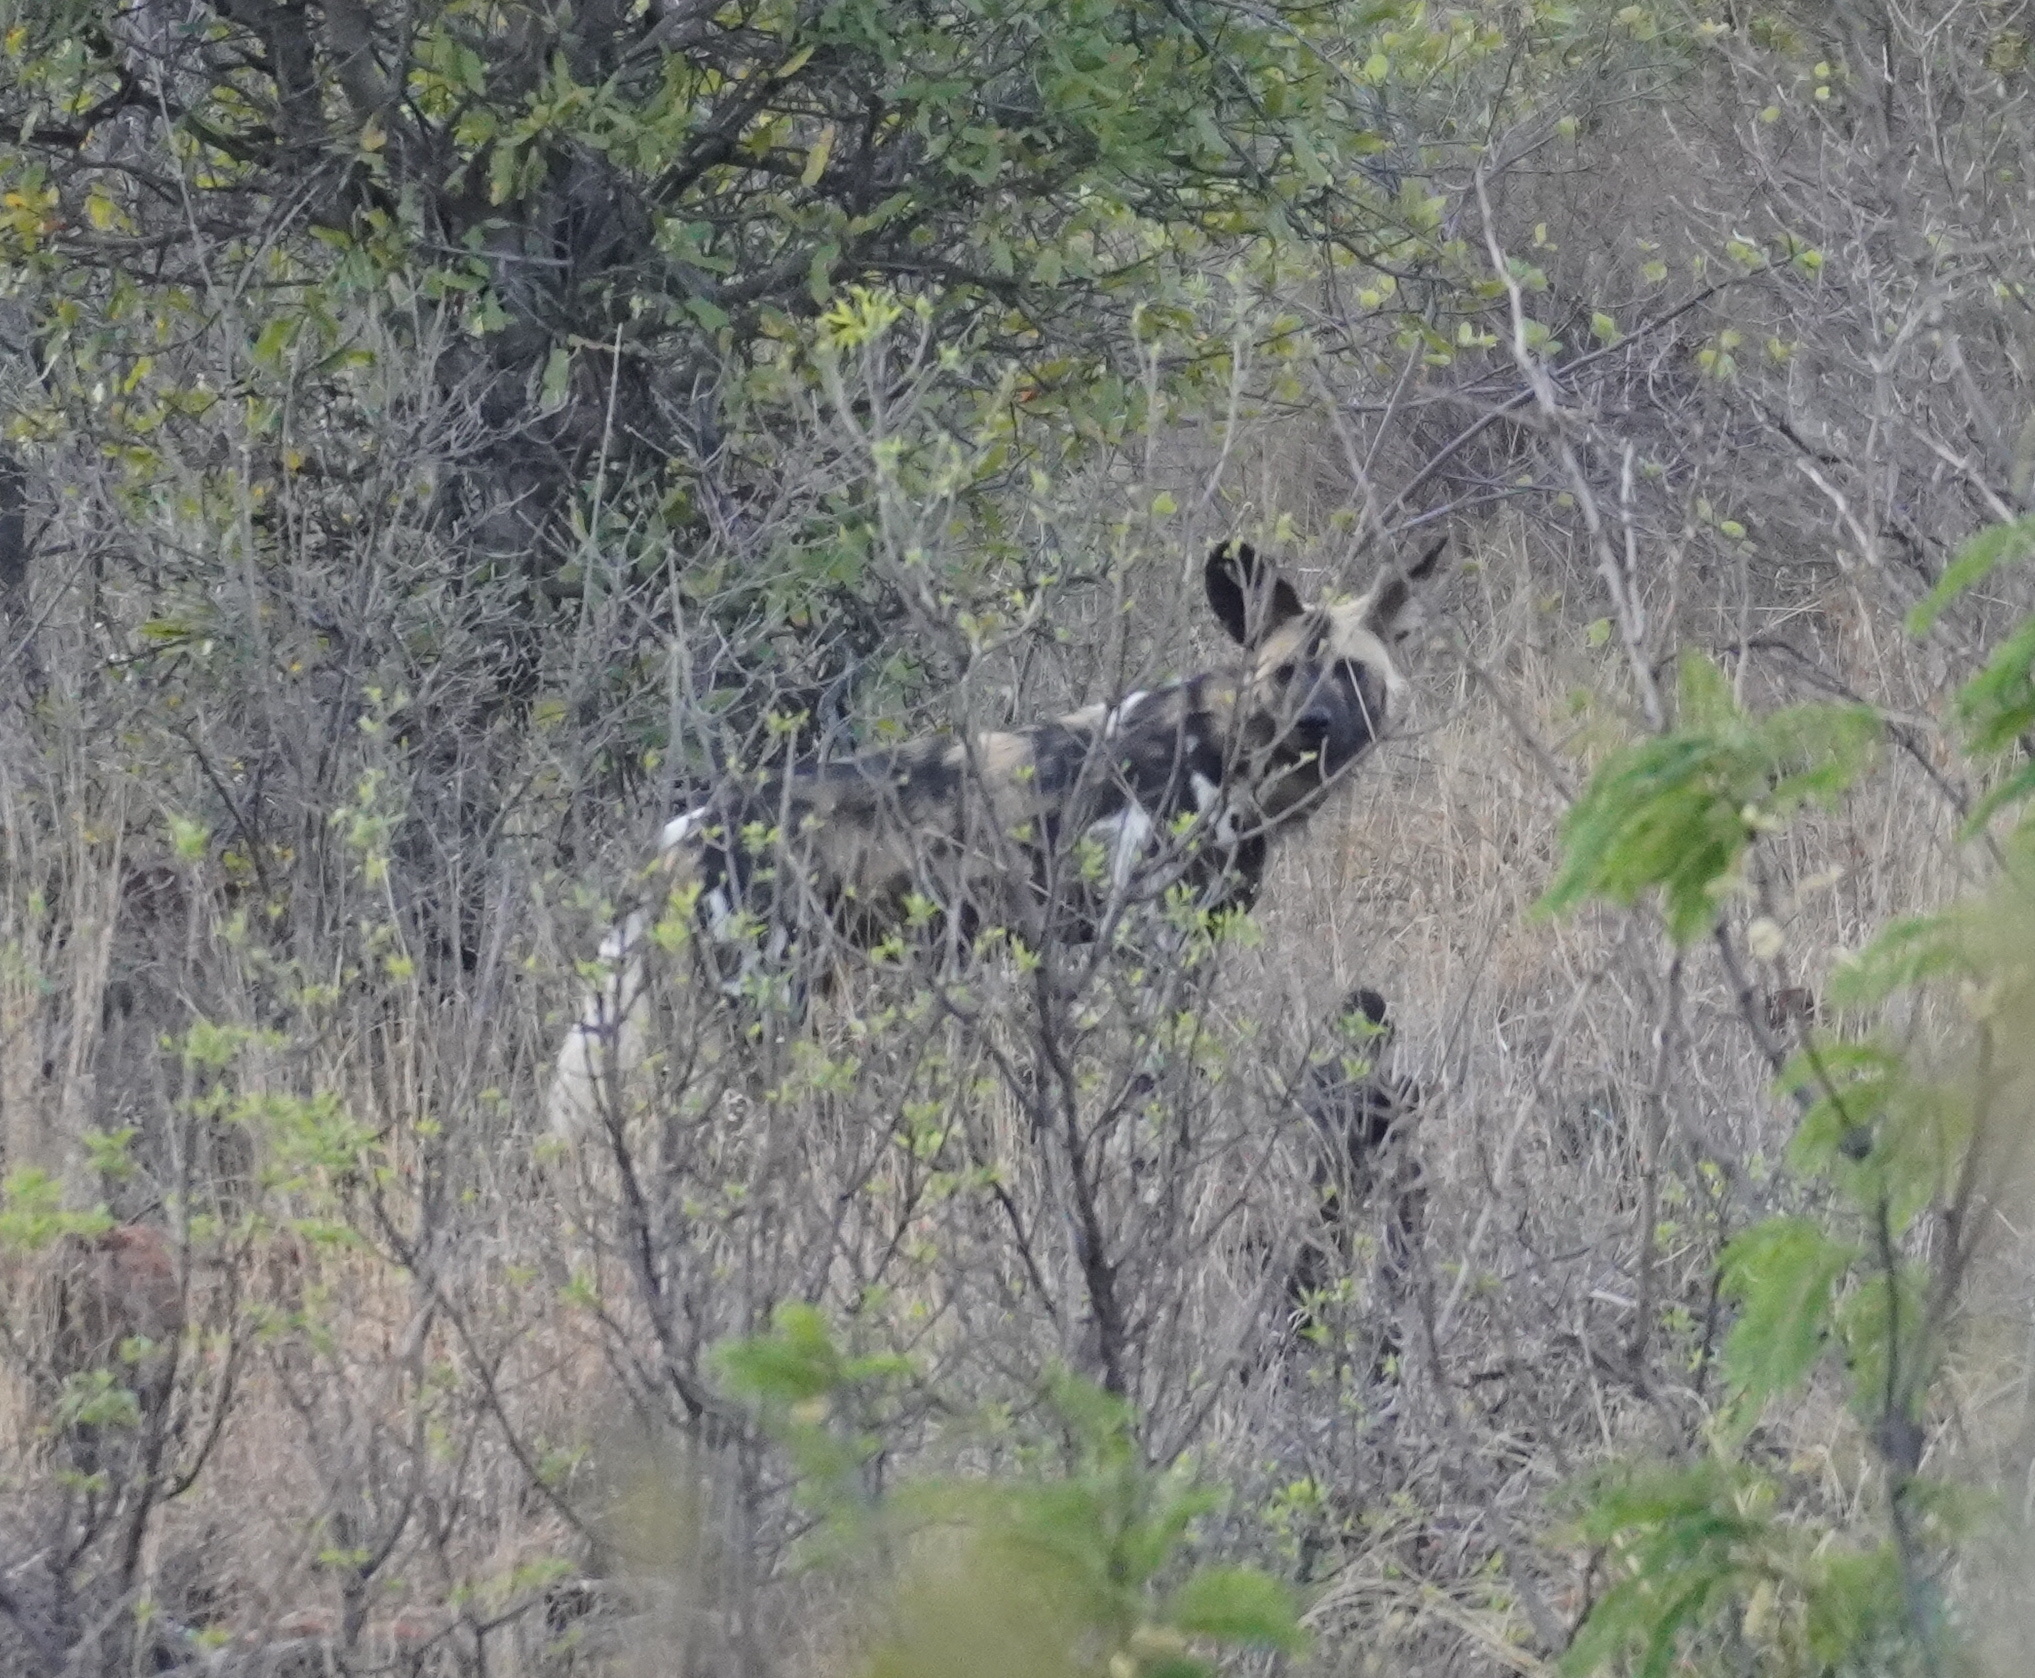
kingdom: Animalia
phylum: Chordata
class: Mammalia
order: Carnivora
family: Canidae
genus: Lycaon
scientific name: Lycaon pictus
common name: African wild dog
